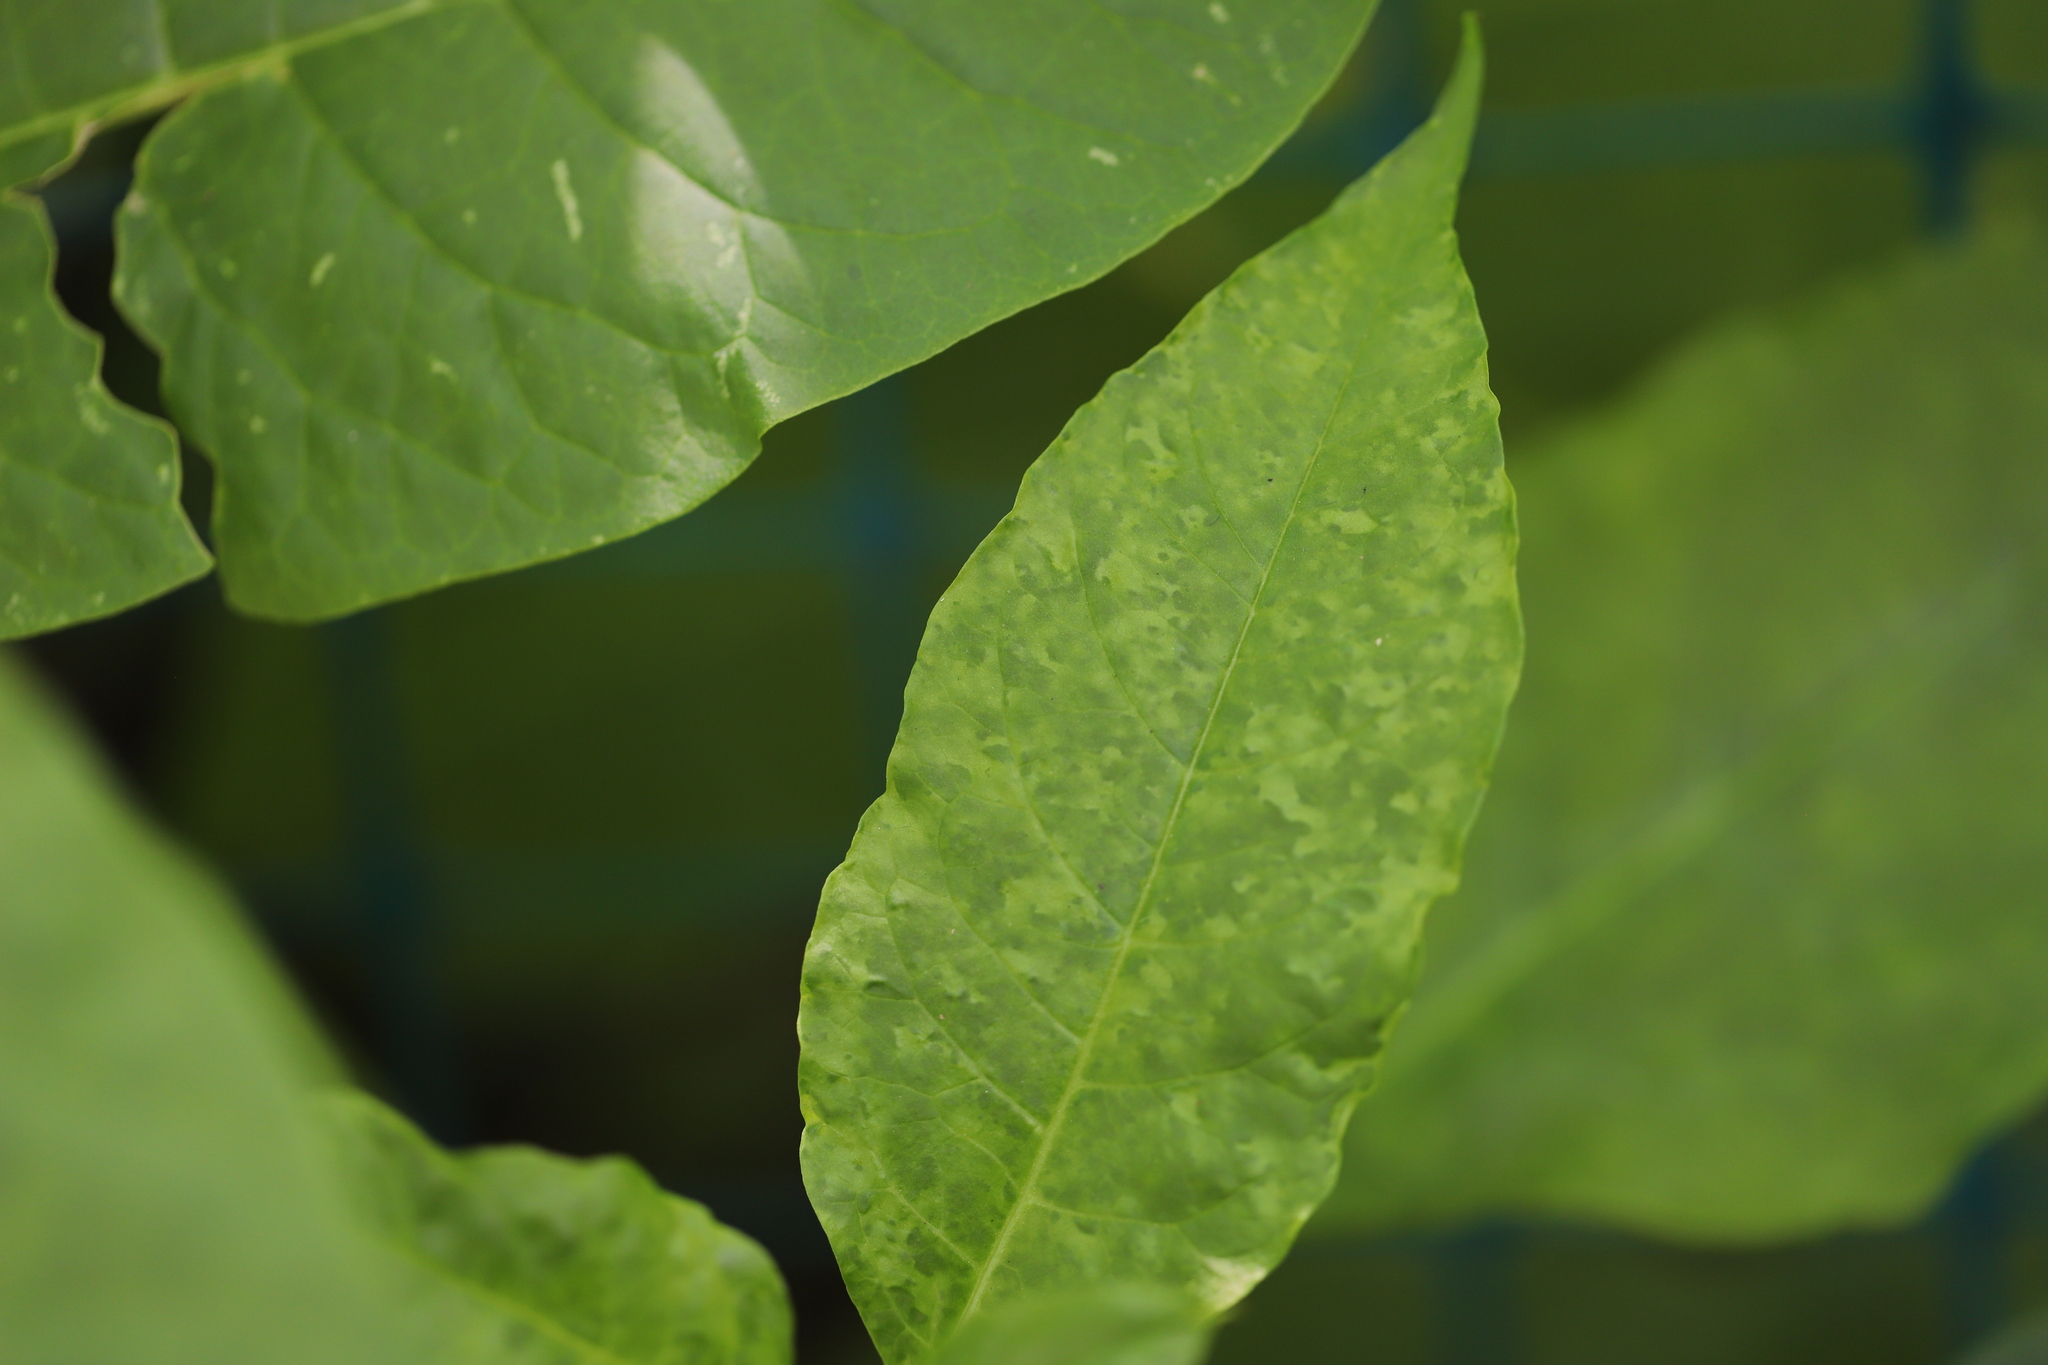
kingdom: Viruses
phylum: Pisuviricota
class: Stelpaviricetes
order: Patatavirales
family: Potyviridae
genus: Potyvirus
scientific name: Potyvirus Pokeweed mosaic virus
